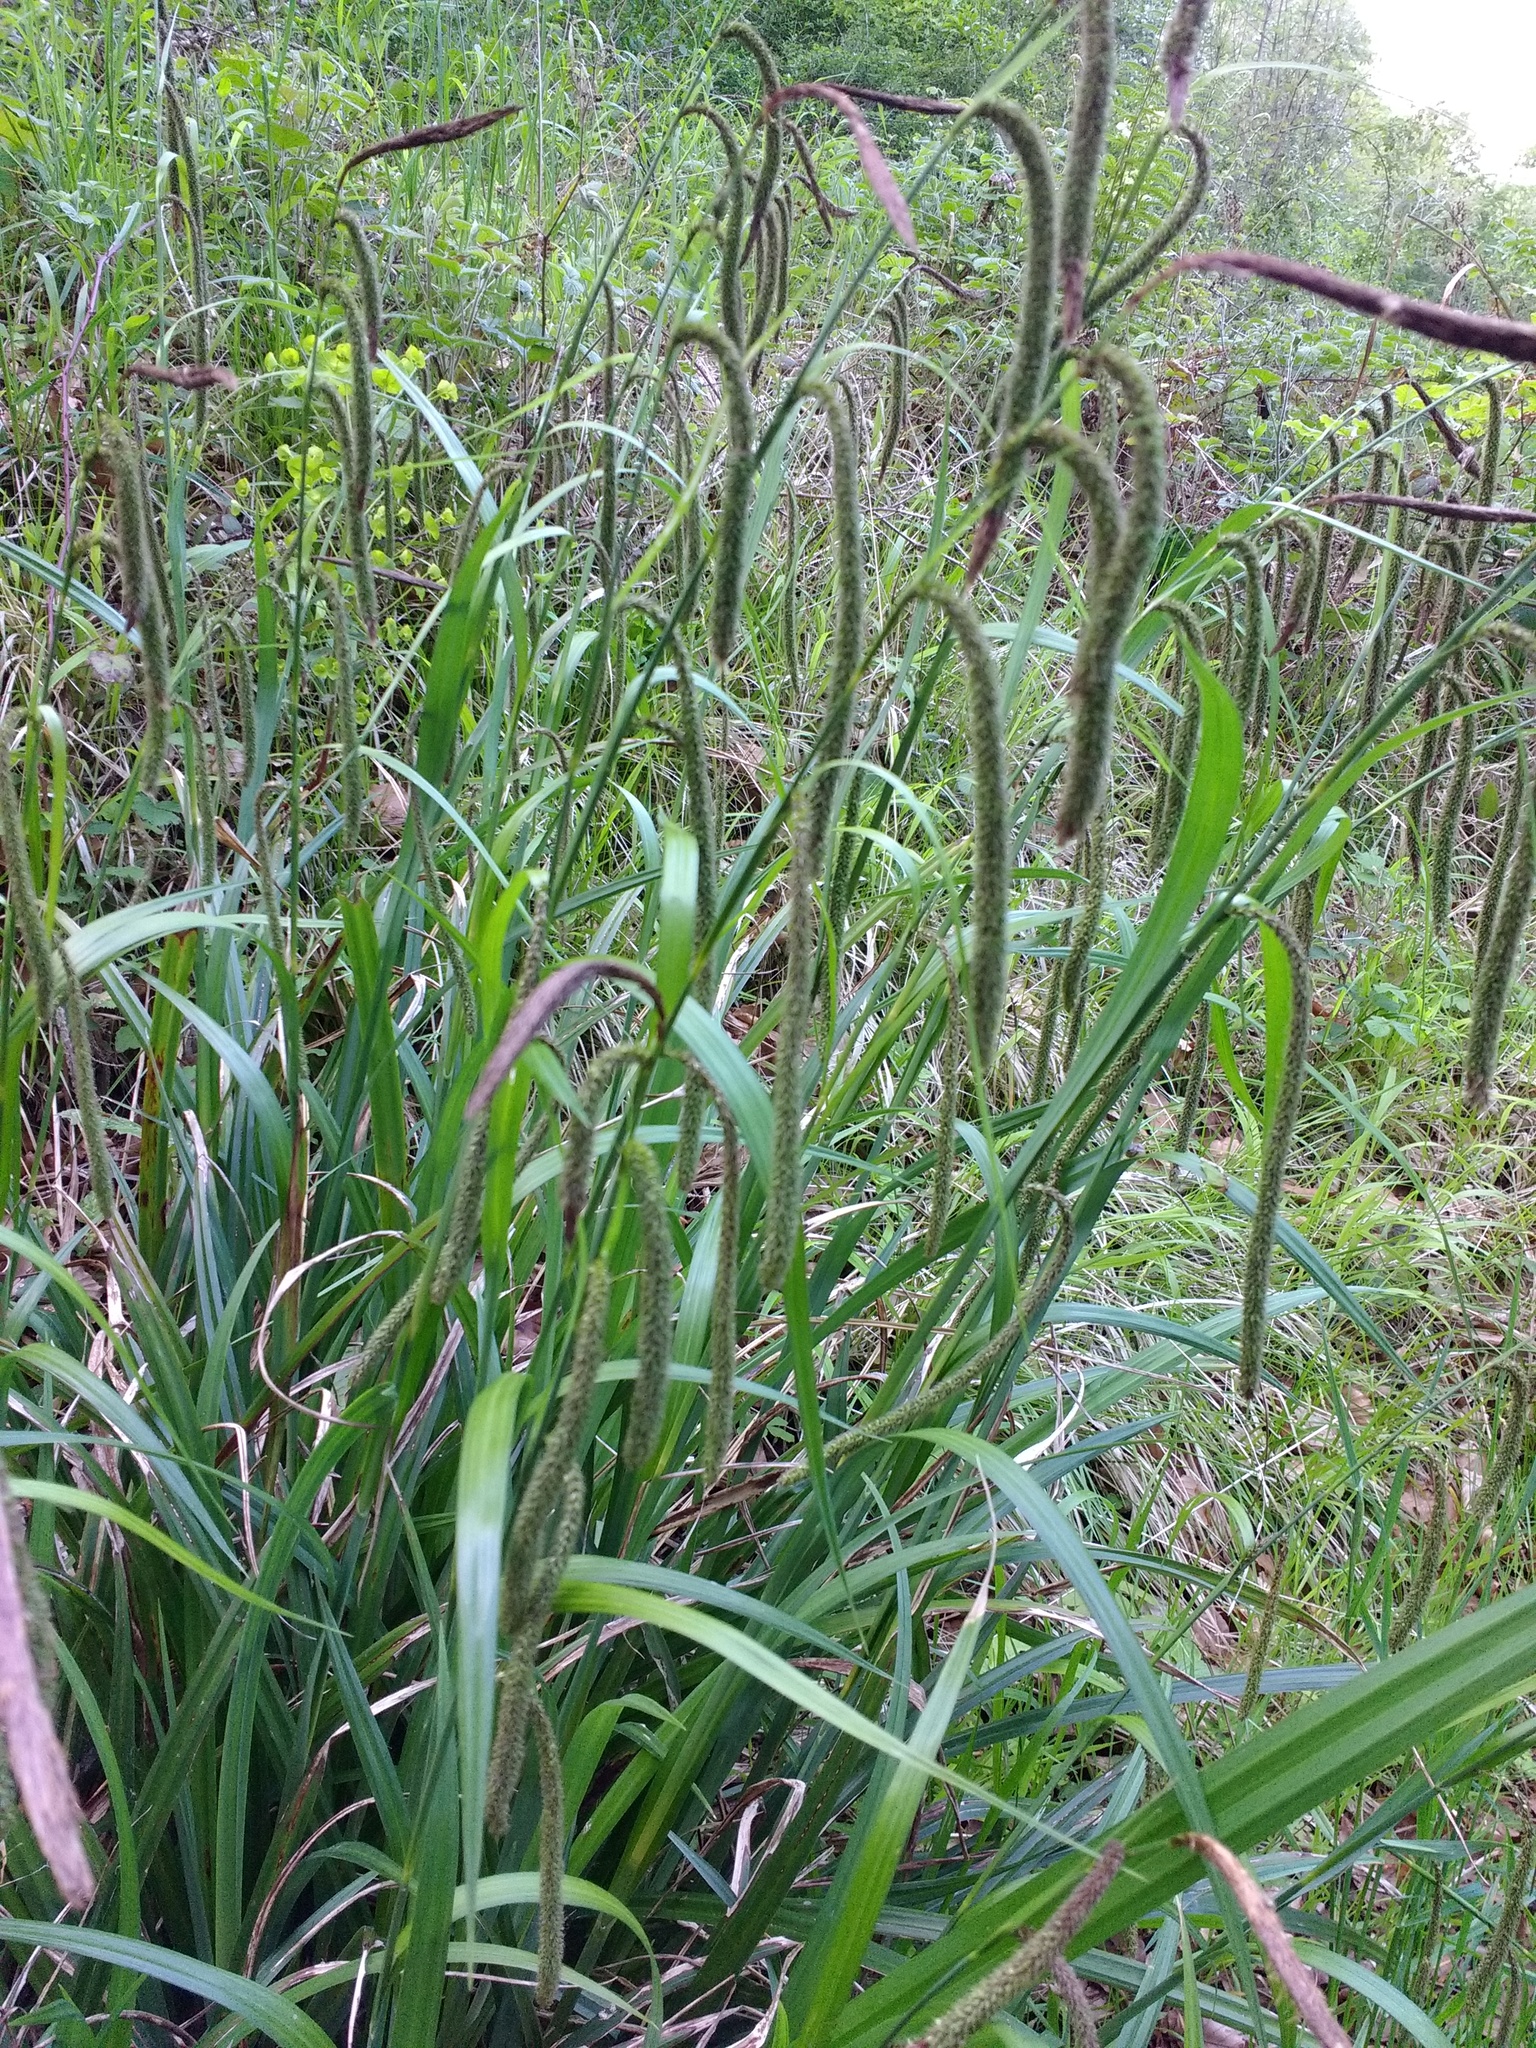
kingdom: Plantae
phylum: Tracheophyta
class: Liliopsida
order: Poales
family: Cyperaceae
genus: Carex
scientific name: Carex pendula
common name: Pendulous sedge
